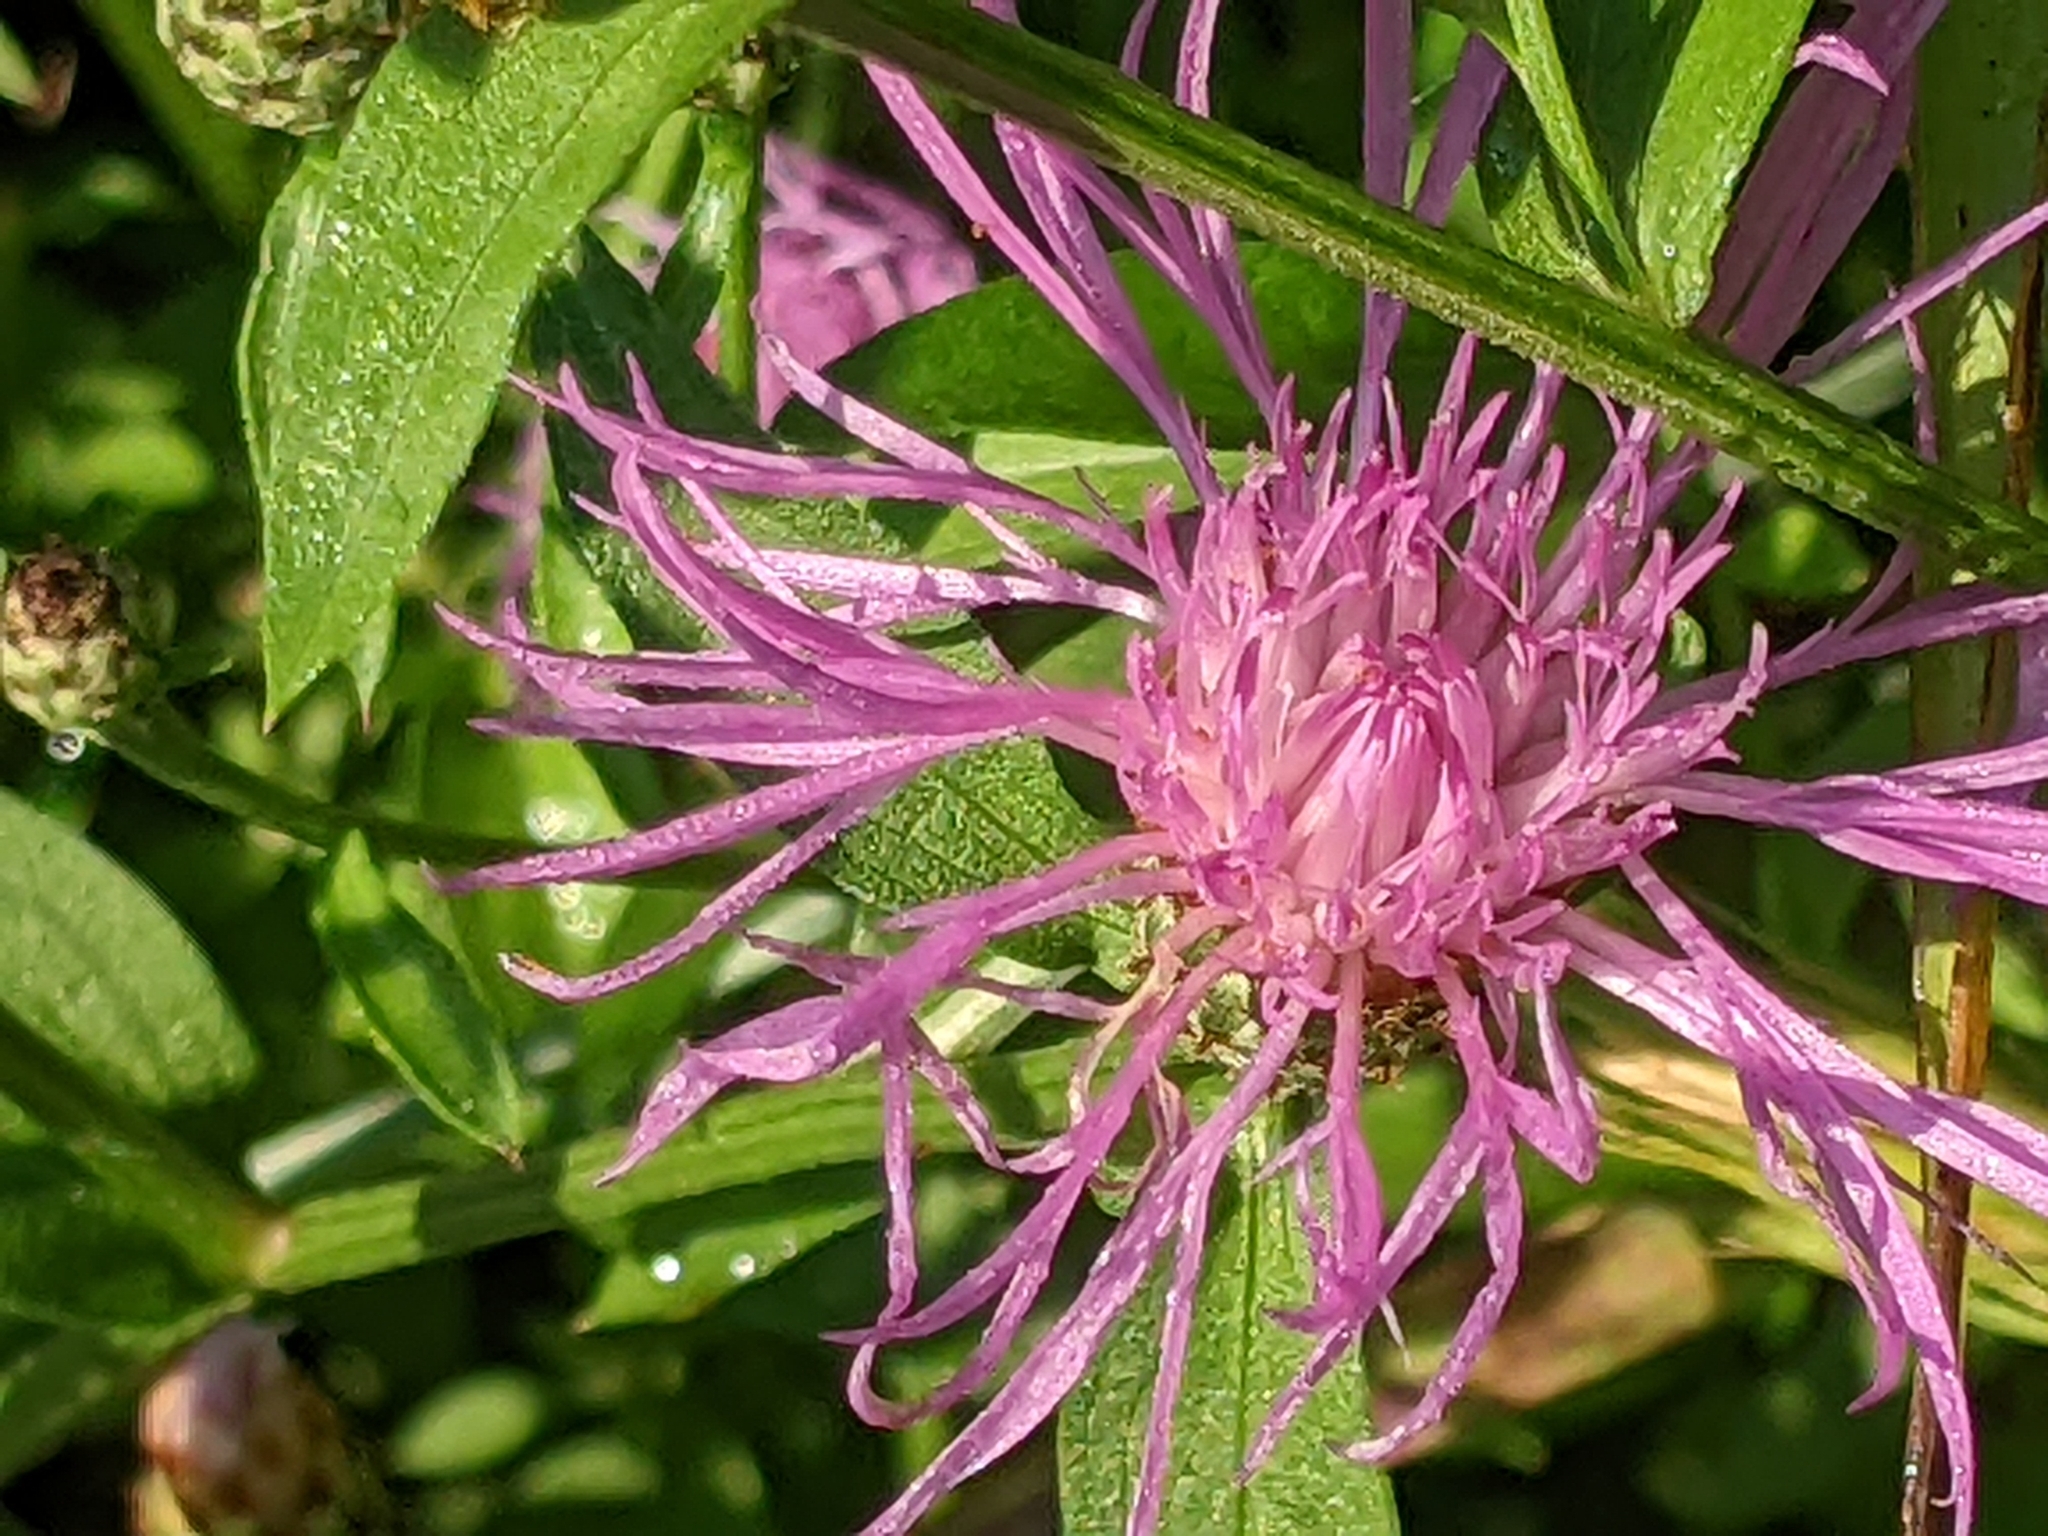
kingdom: Plantae
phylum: Tracheophyta
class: Magnoliopsida
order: Asterales
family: Asteraceae
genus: Centaurea
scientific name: Centaurea nigrescens
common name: Tyrol knapweed
